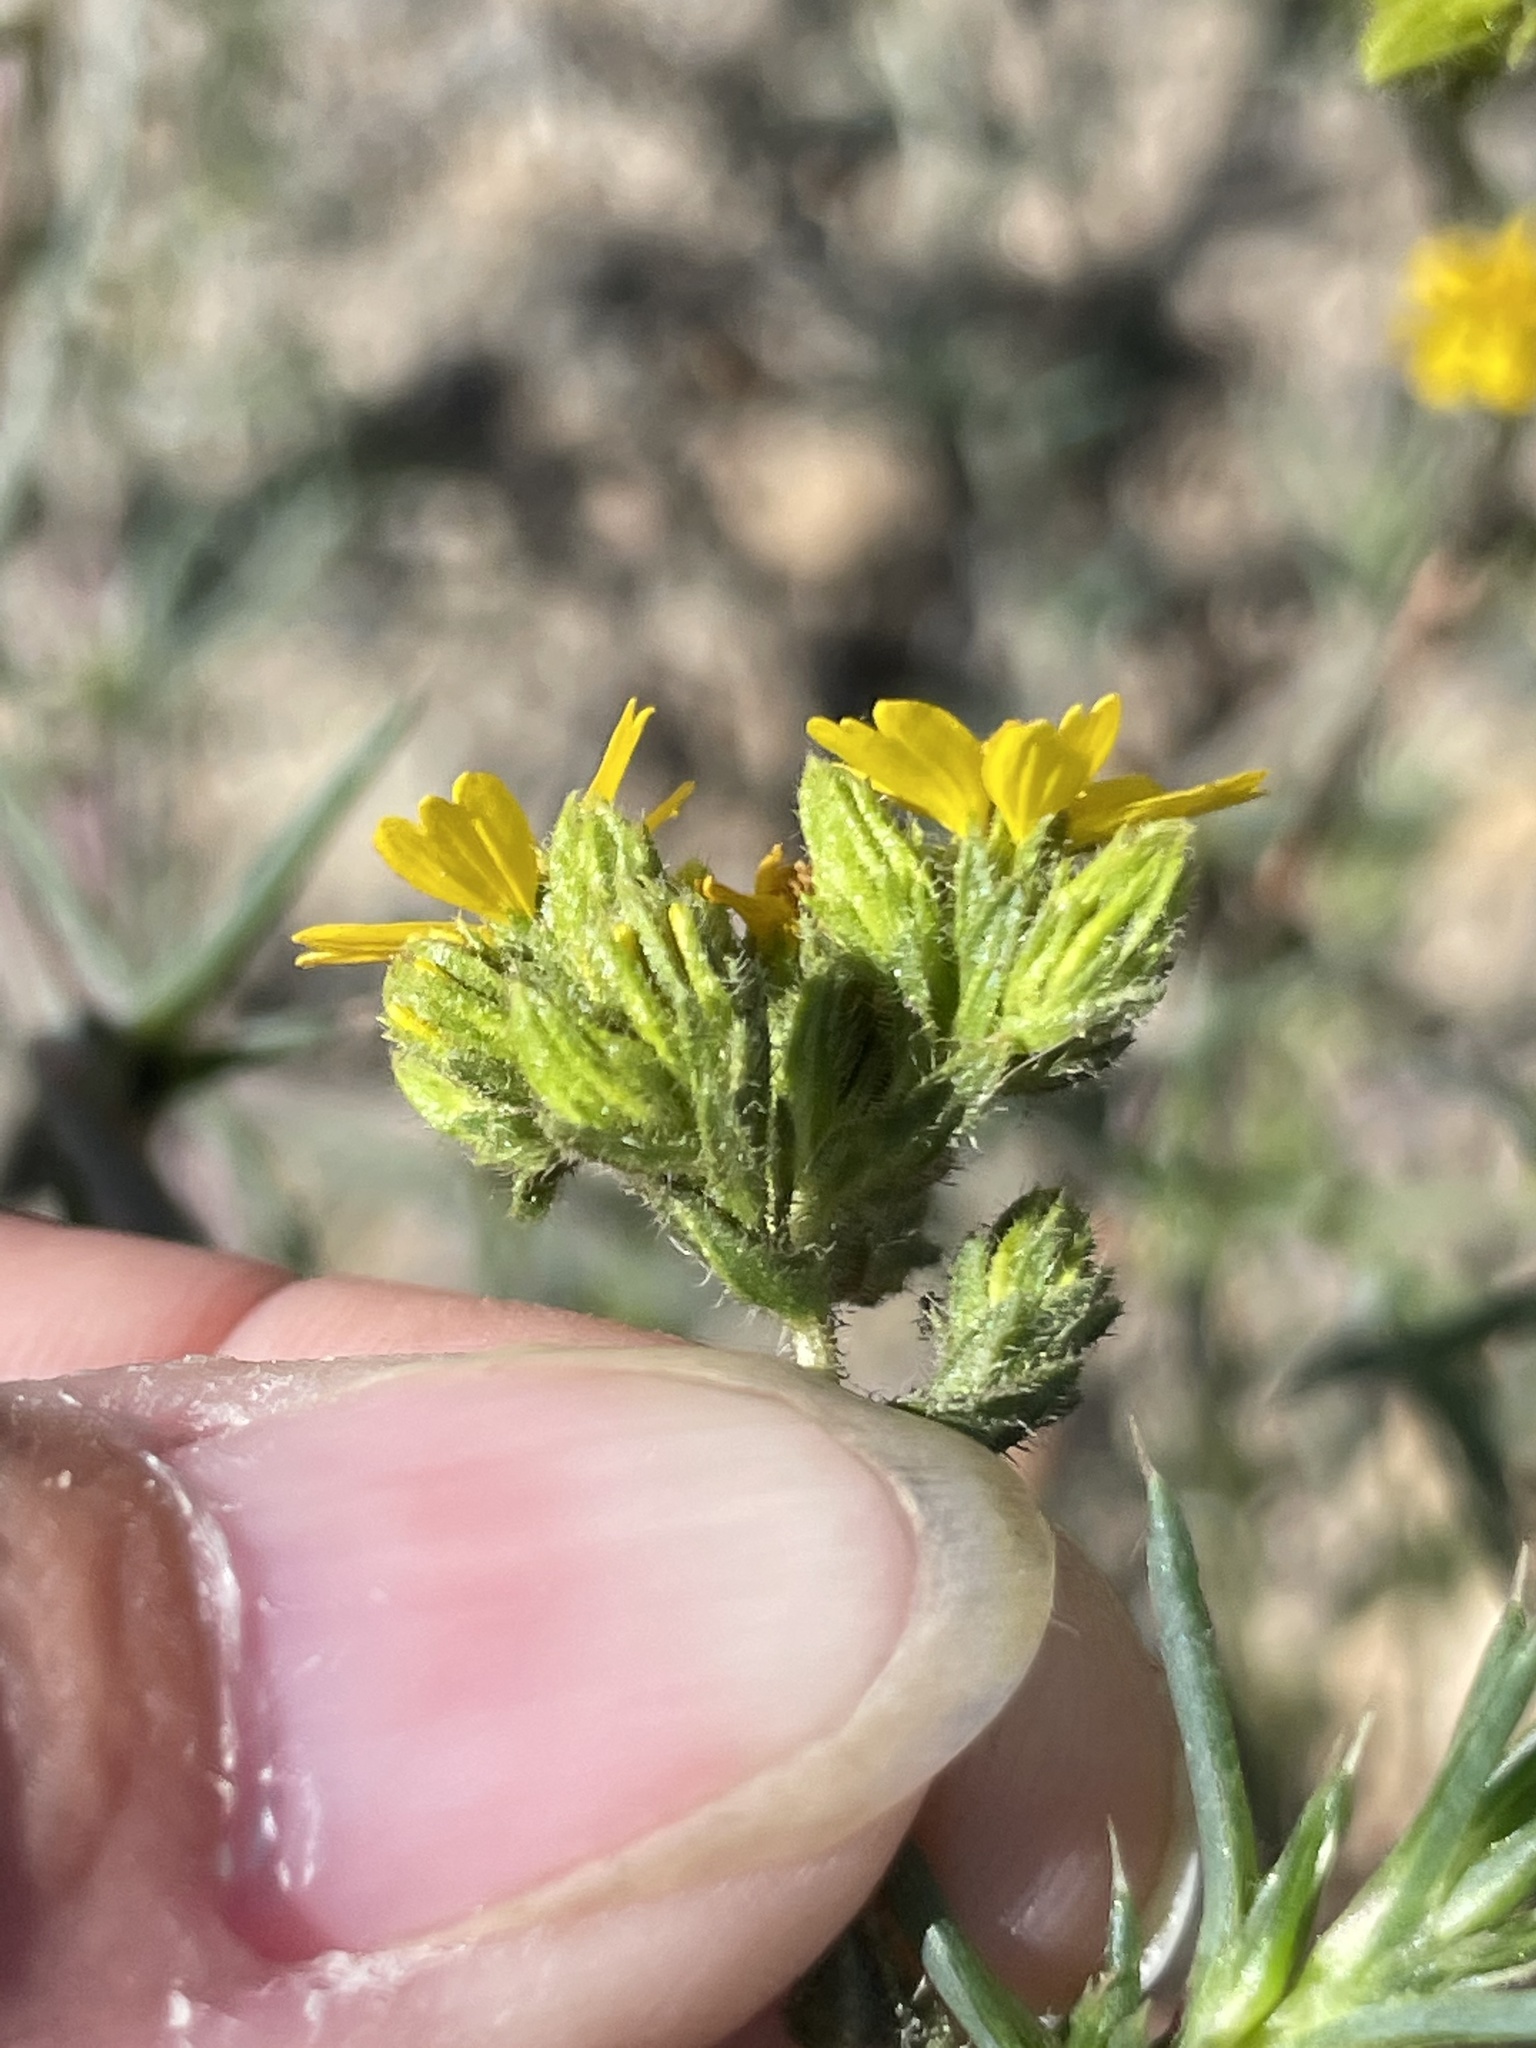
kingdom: Plantae
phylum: Tracheophyta
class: Magnoliopsida
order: Asterales
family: Asteraceae
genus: Deinandra
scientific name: Deinandra fasciculata
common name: Clustered tarweed
